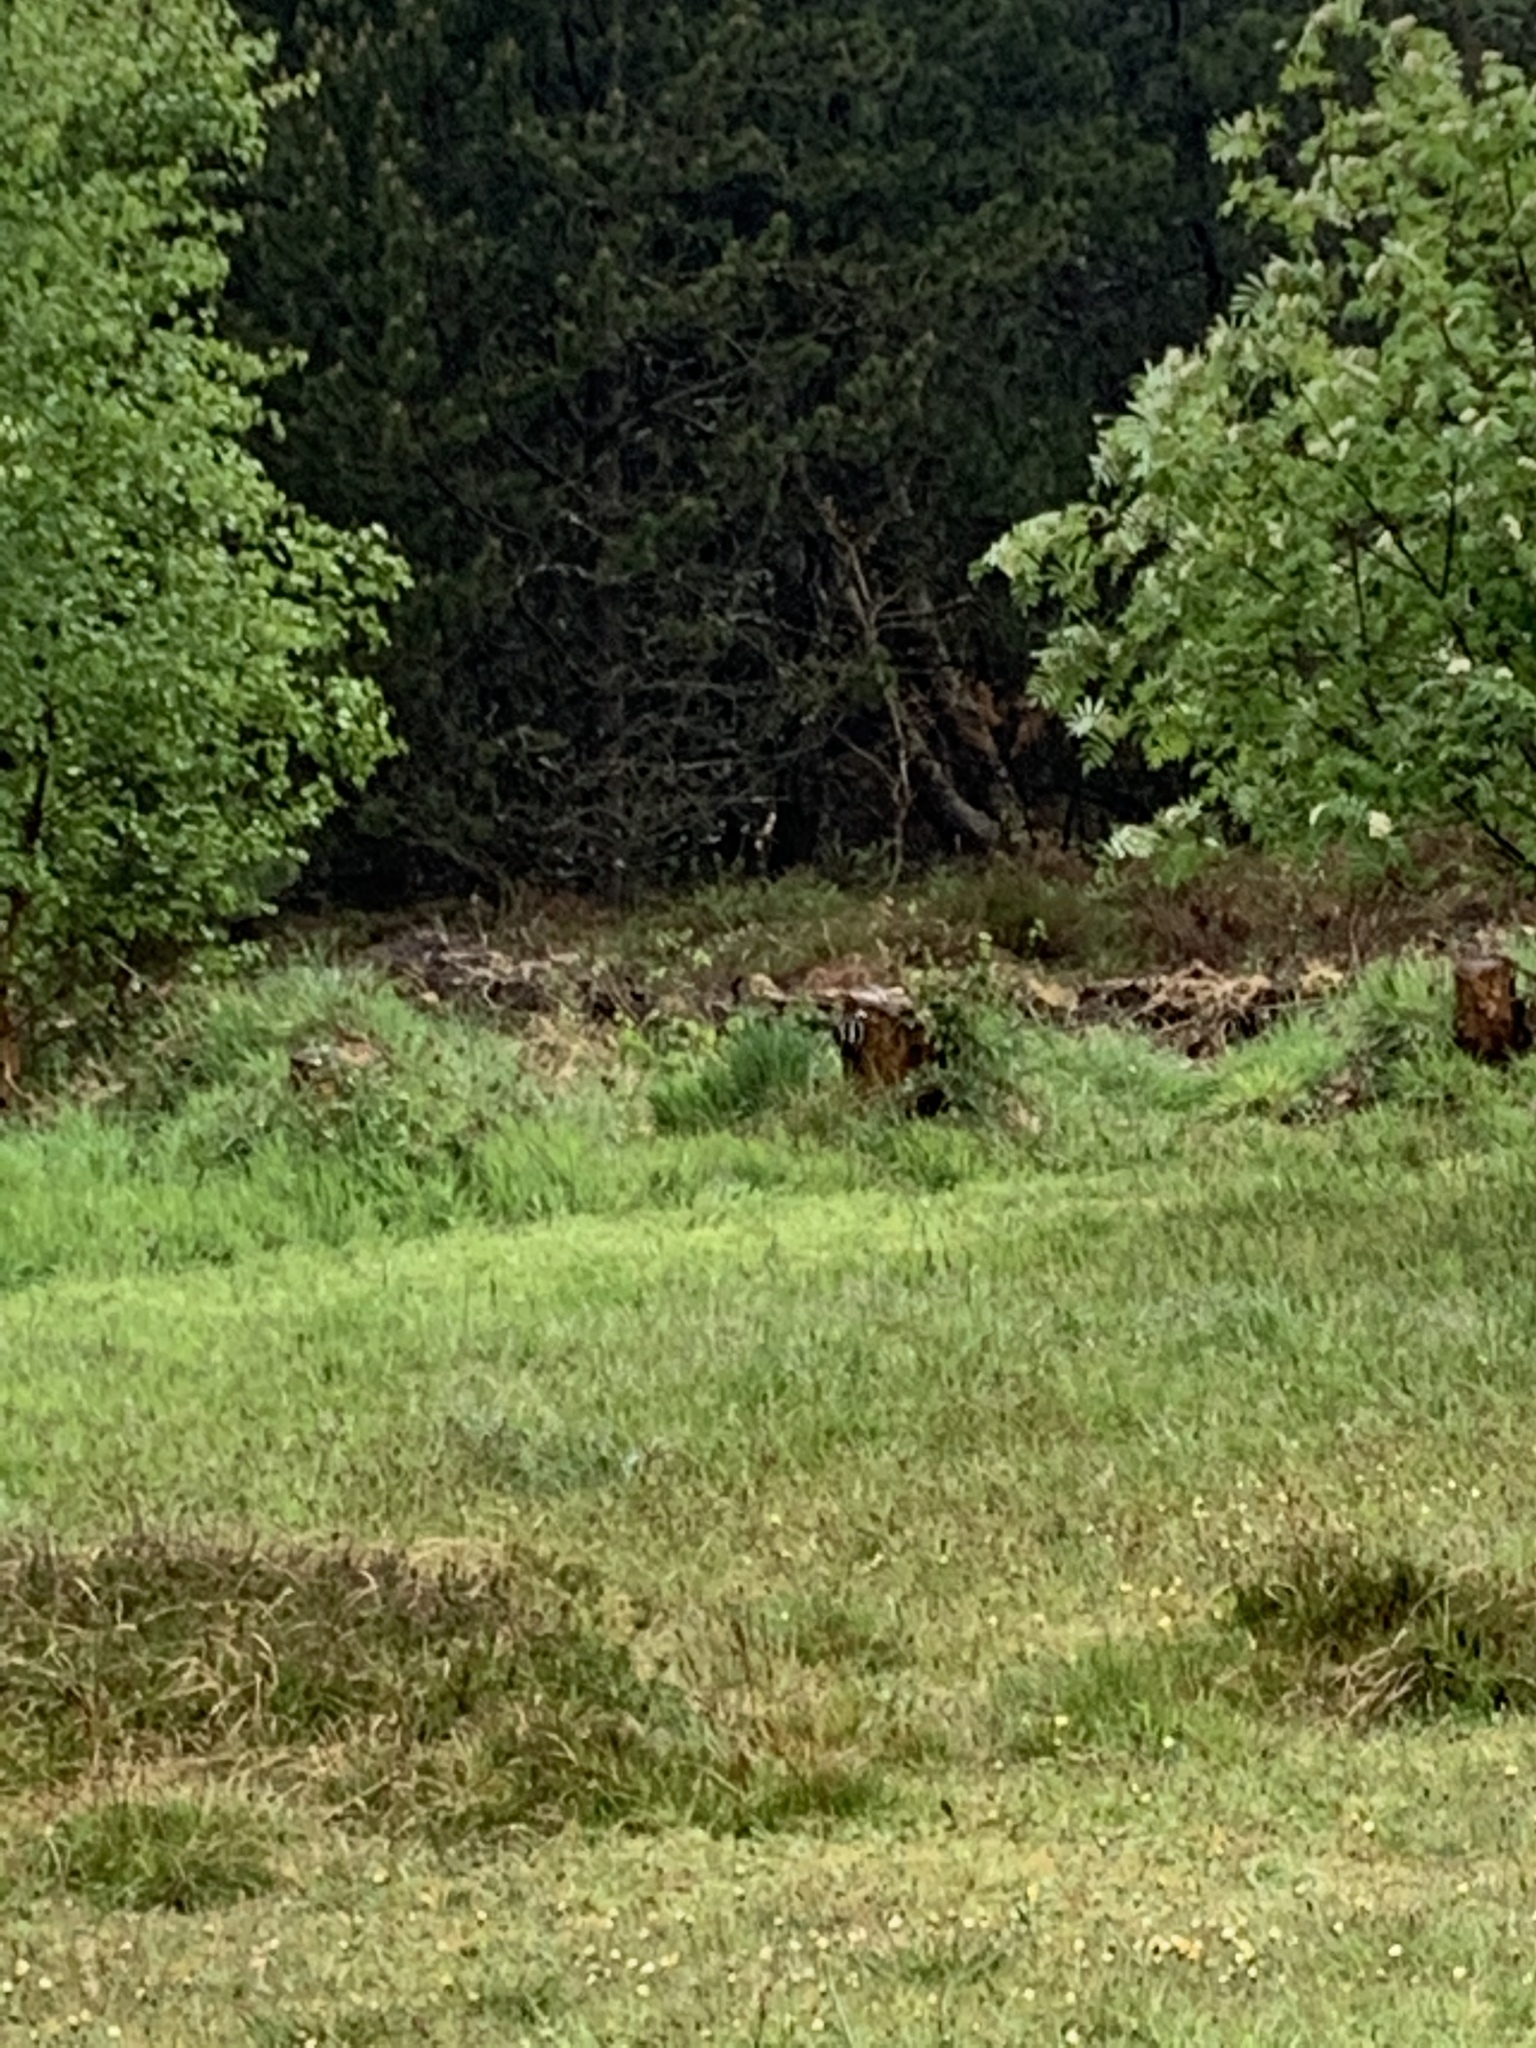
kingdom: Animalia
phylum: Chordata
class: Aves
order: Piciformes
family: Picidae
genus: Dendrocopos
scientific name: Dendrocopos major
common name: Great spotted woodpecker
